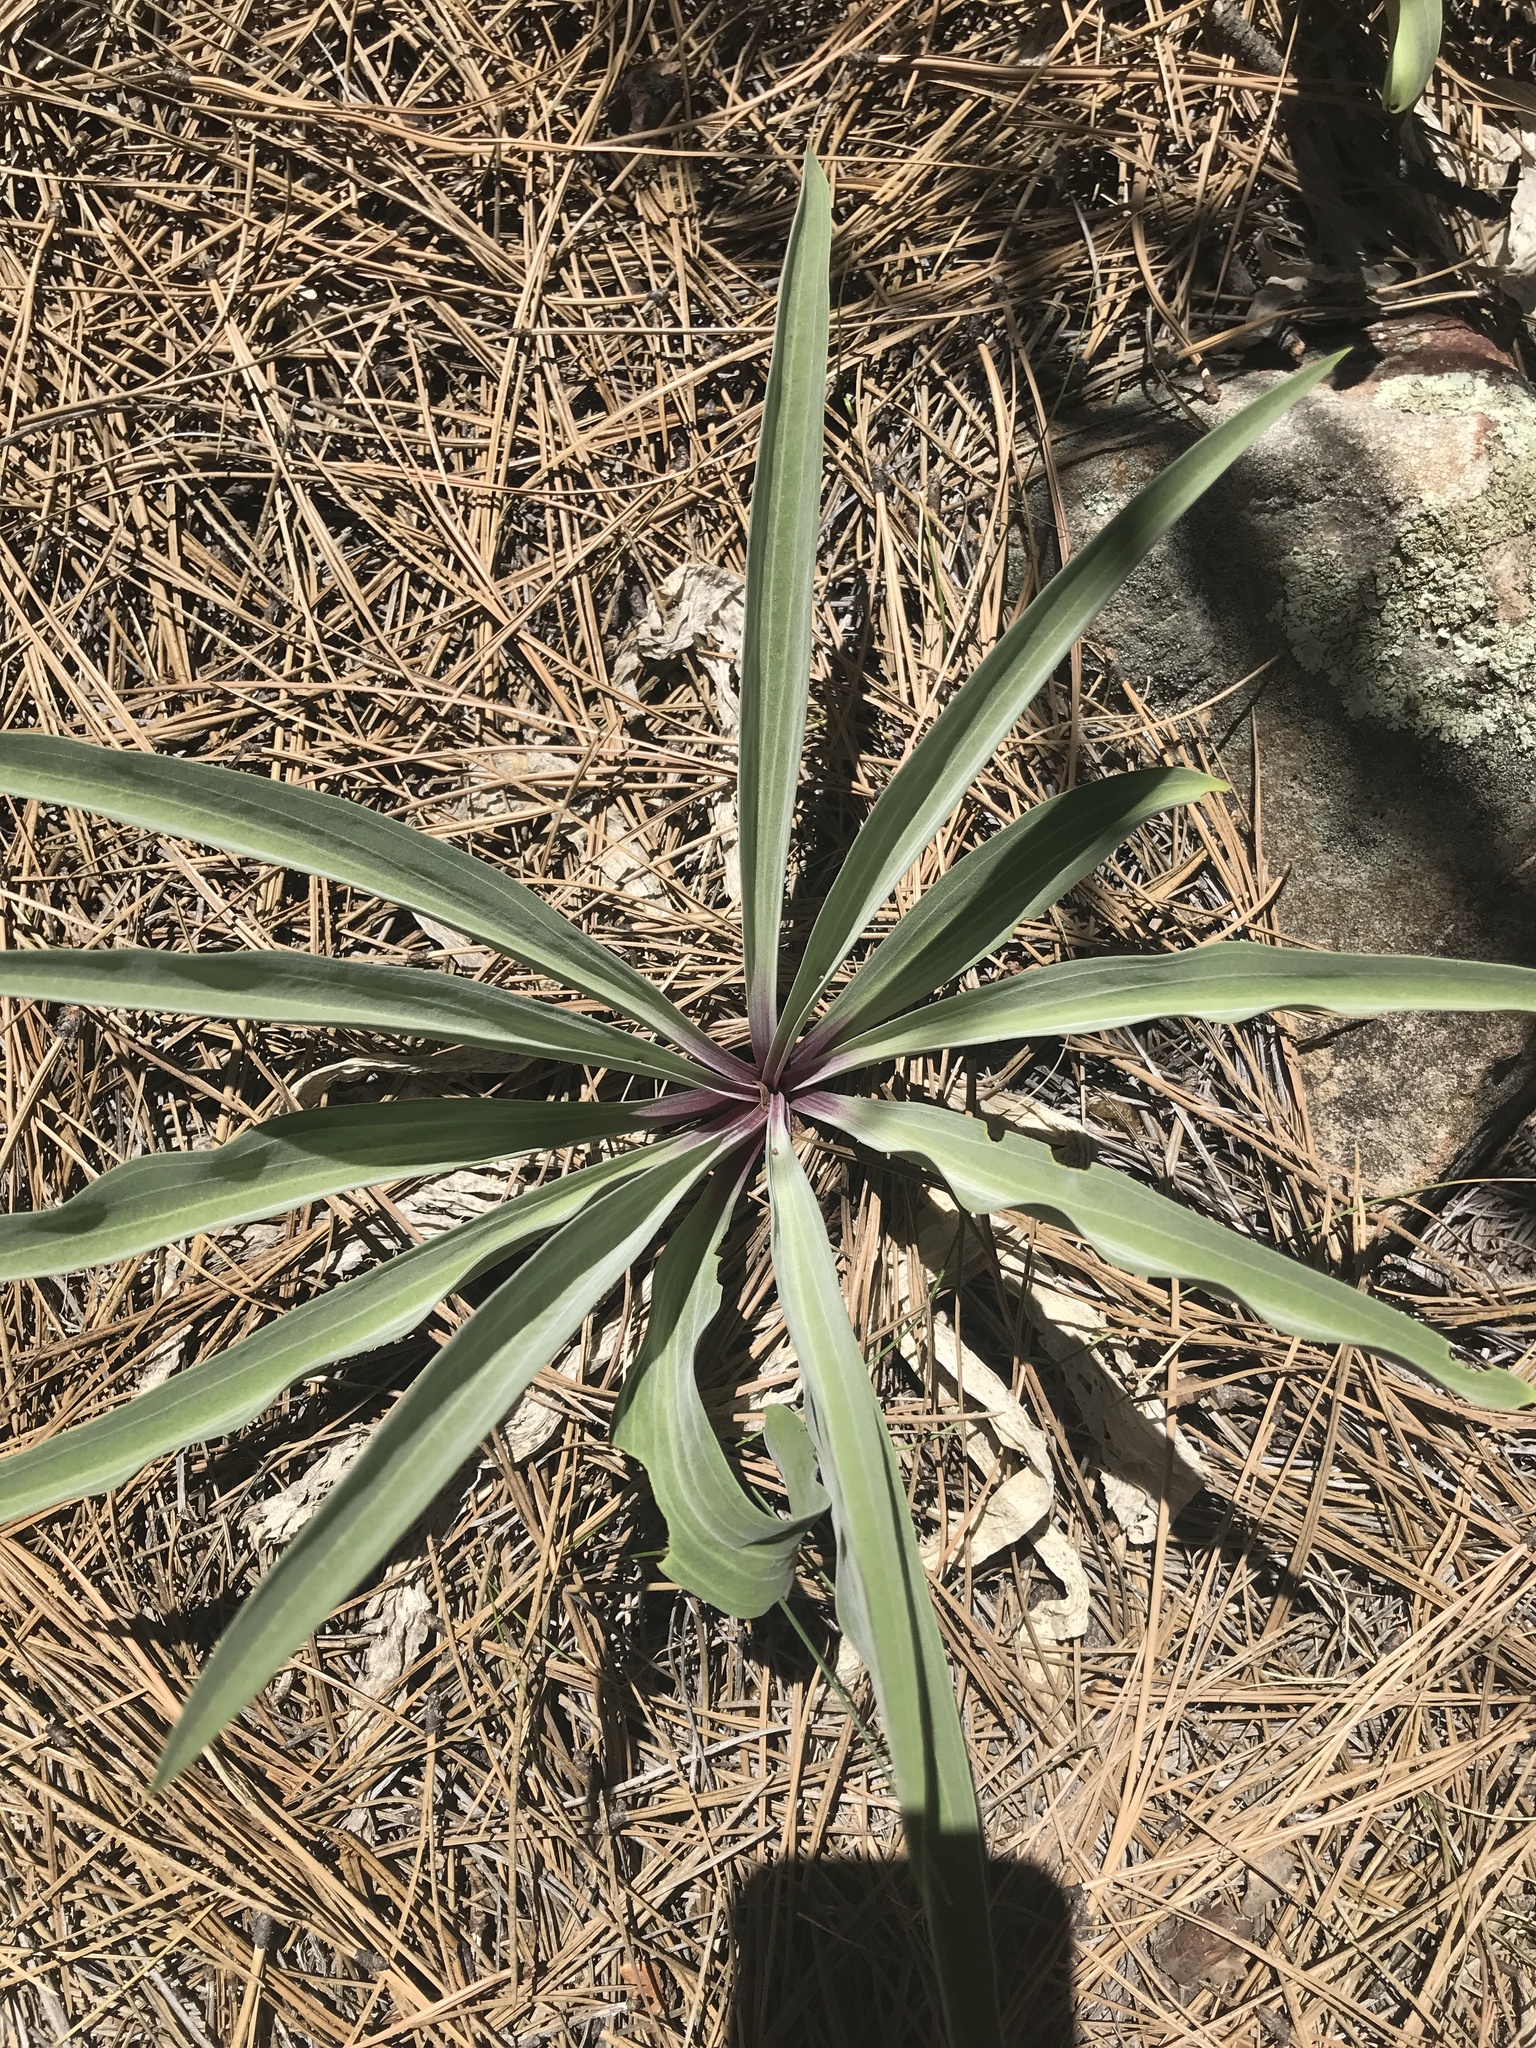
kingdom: Plantae
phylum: Tracheophyta
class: Magnoliopsida
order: Gentianales
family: Gentianaceae
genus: Frasera
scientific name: Frasera speciosa
